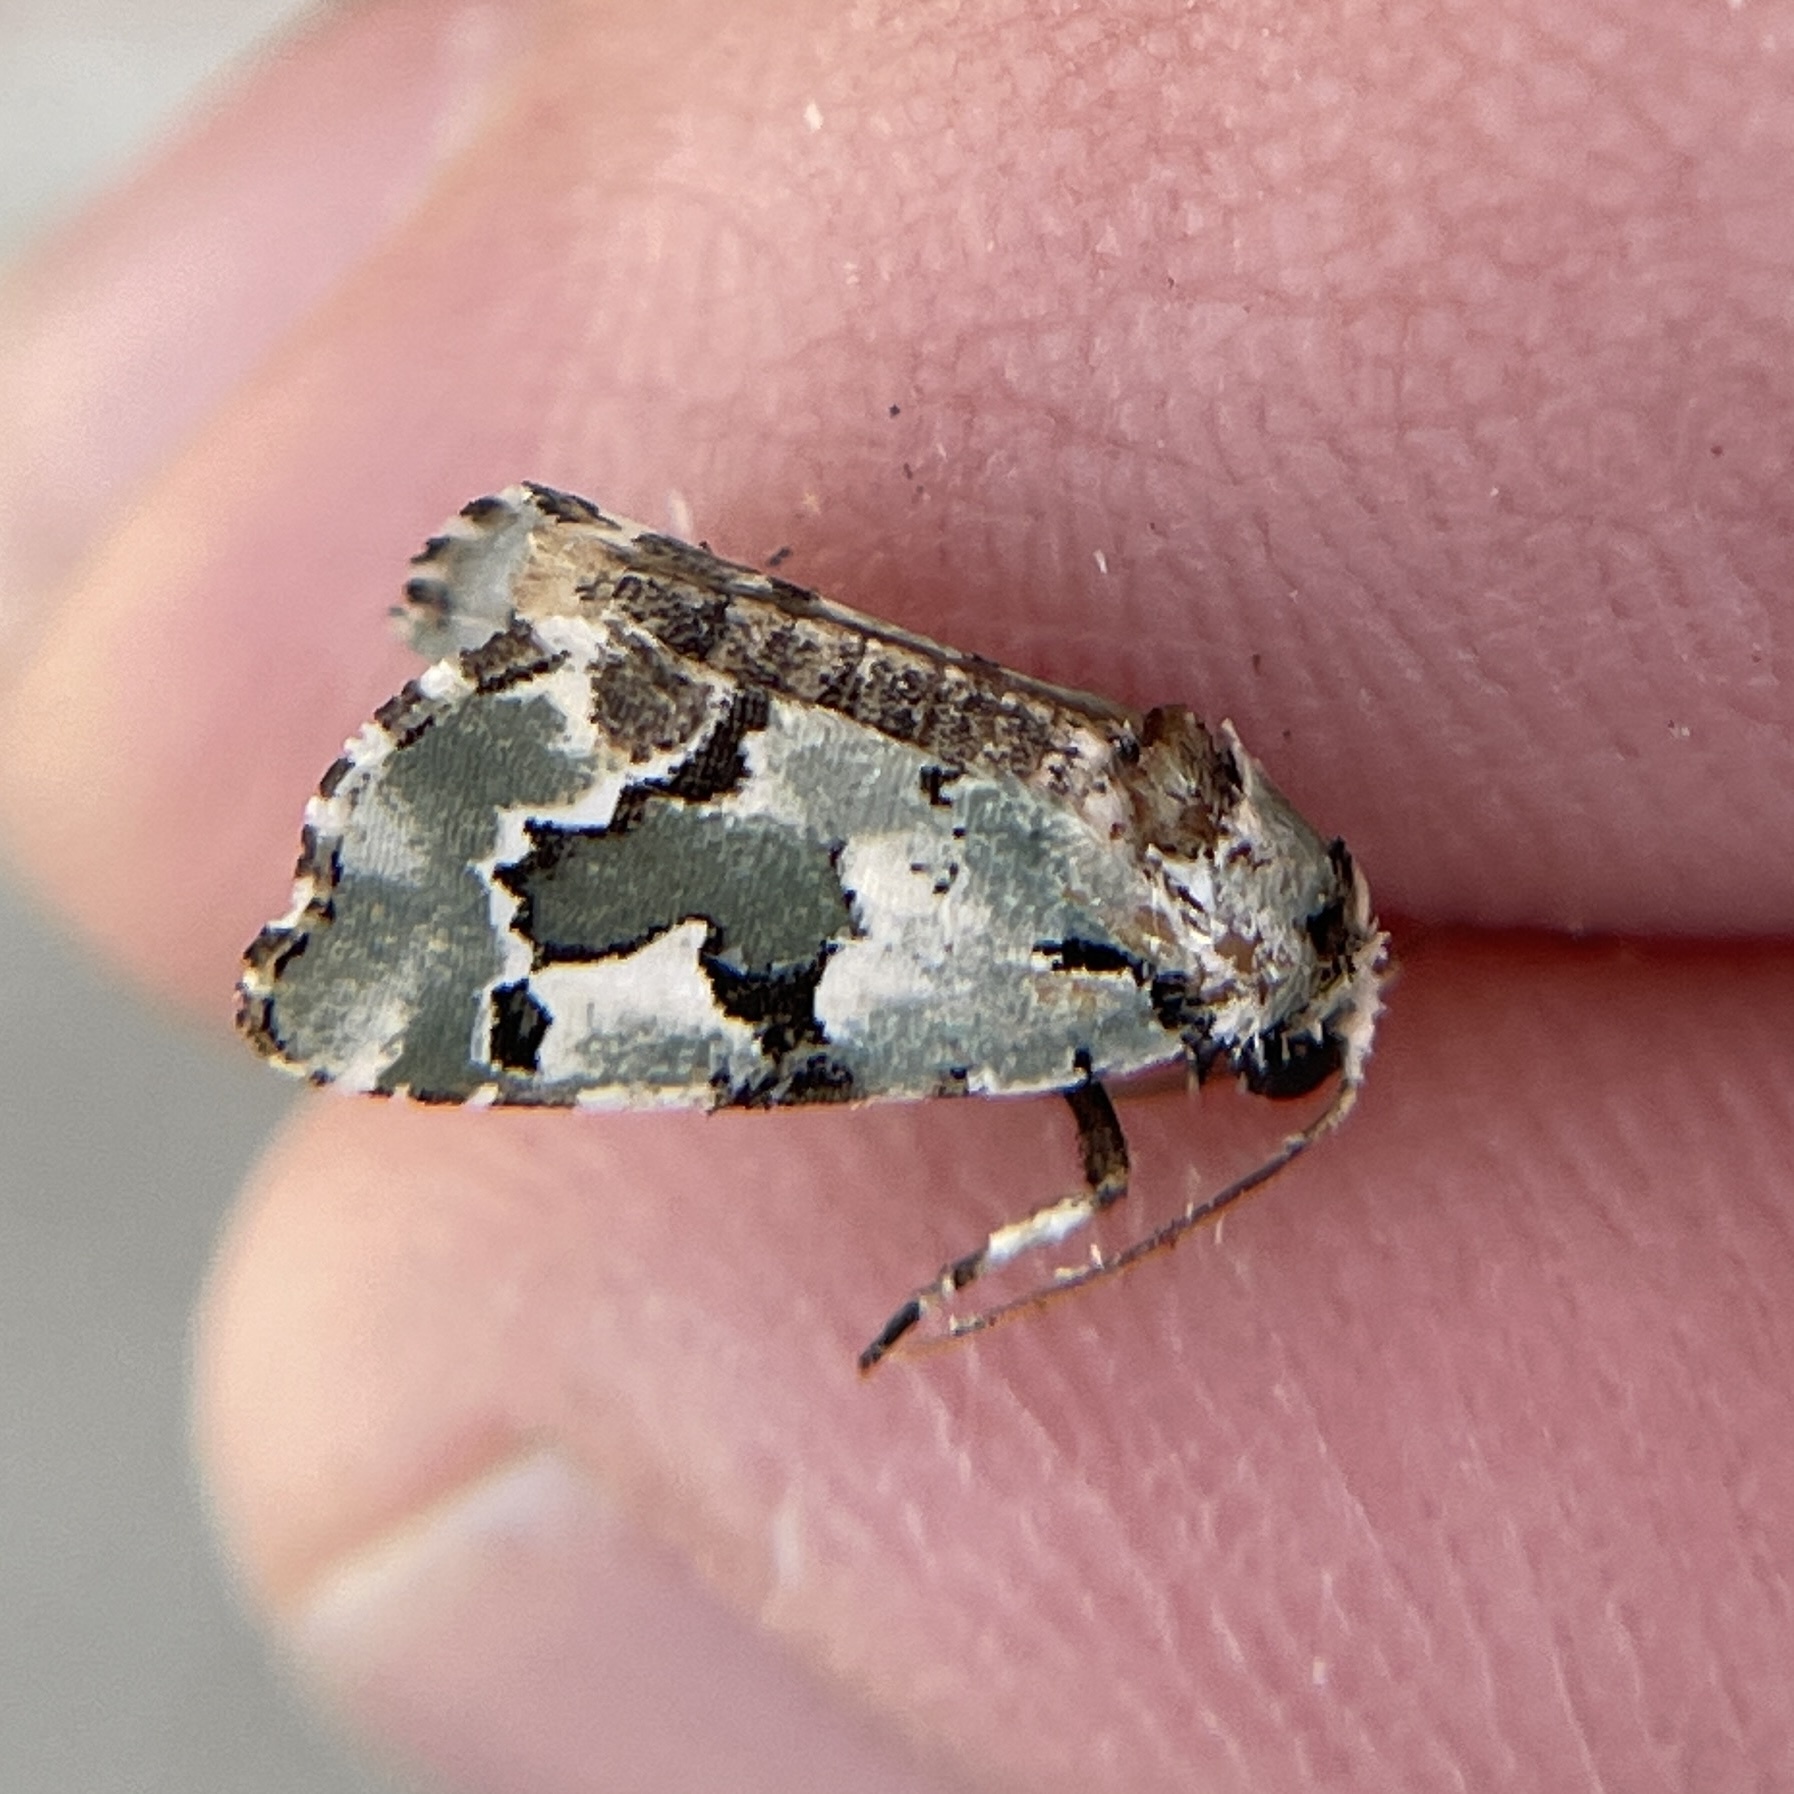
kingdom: Animalia
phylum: Arthropoda
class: Insecta
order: Lepidoptera
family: Noctuidae
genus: Emarginea
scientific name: Emarginea percara
